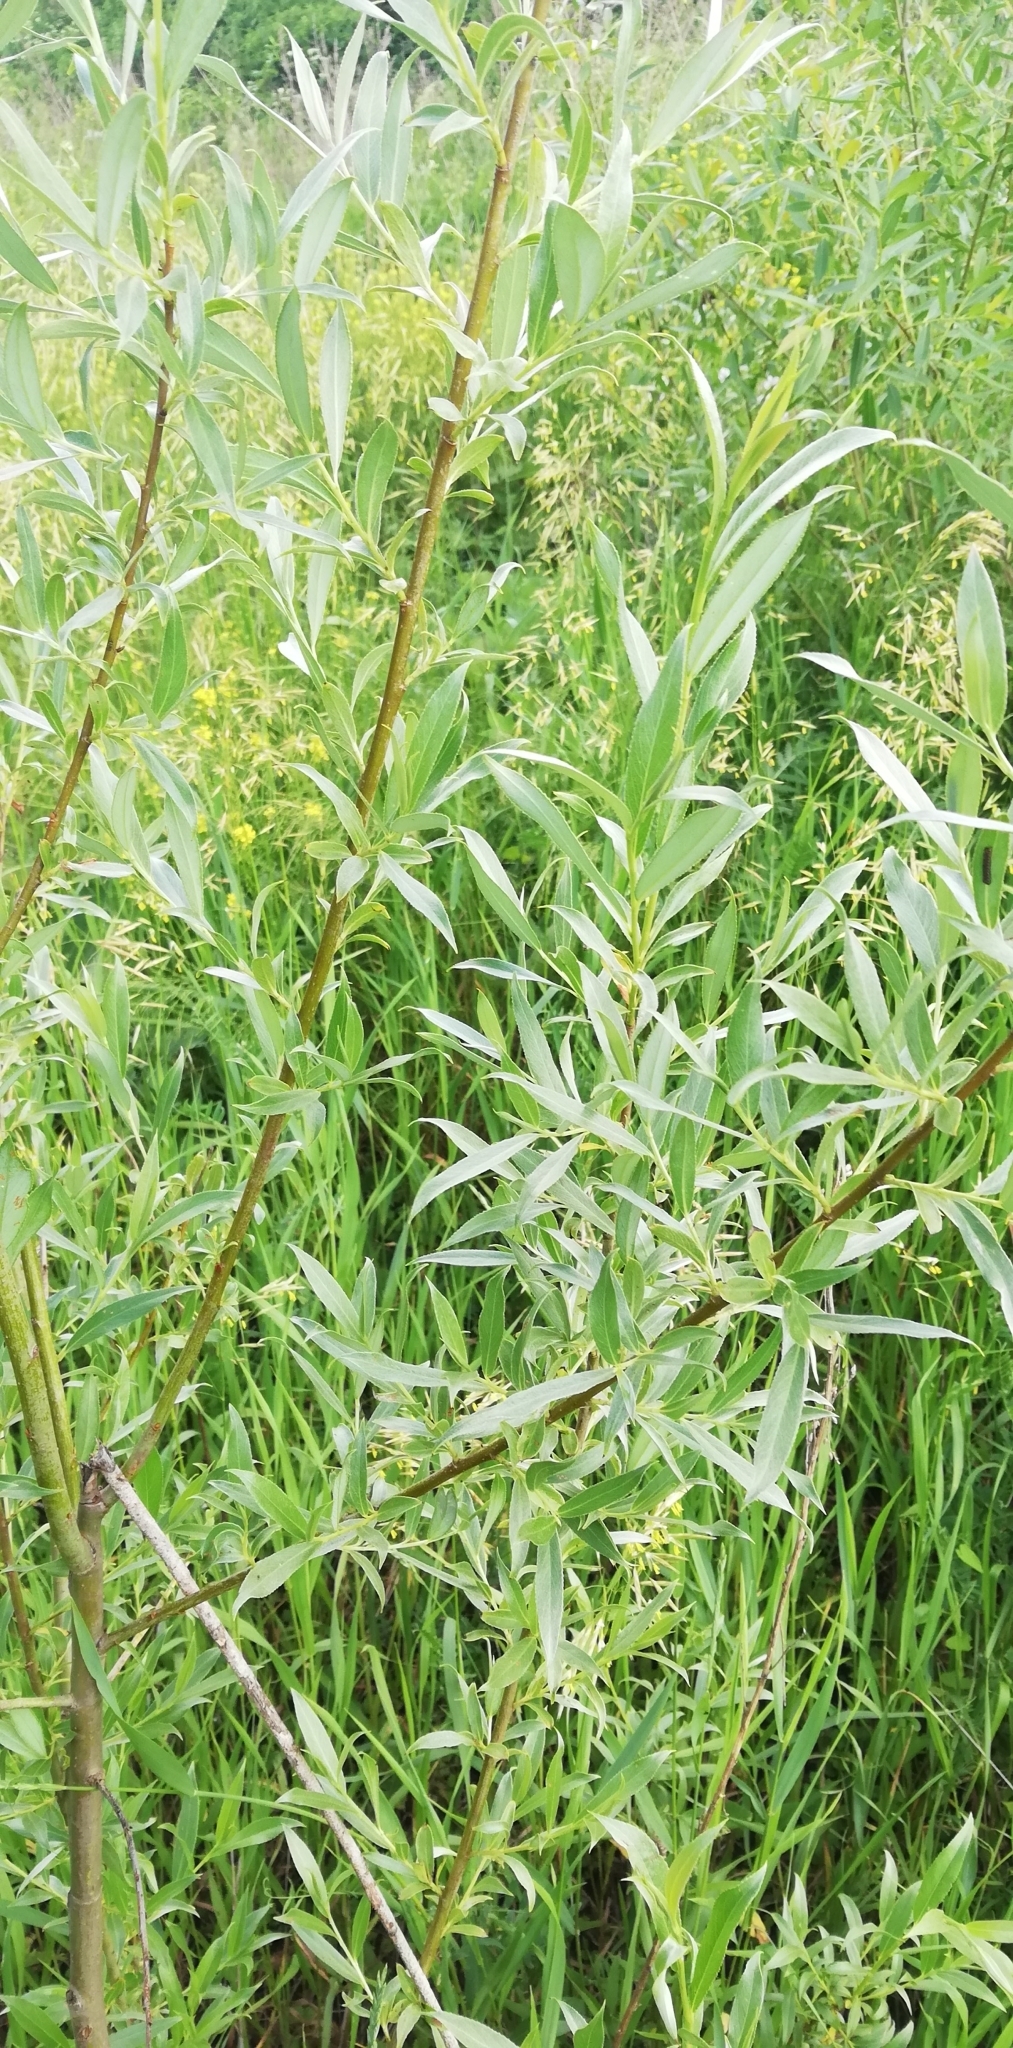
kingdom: Plantae
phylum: Tracheophyta
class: Magnoliopsida
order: Malpighiales
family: Salicaceae
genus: Salix
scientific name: Salix alba
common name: White willow
